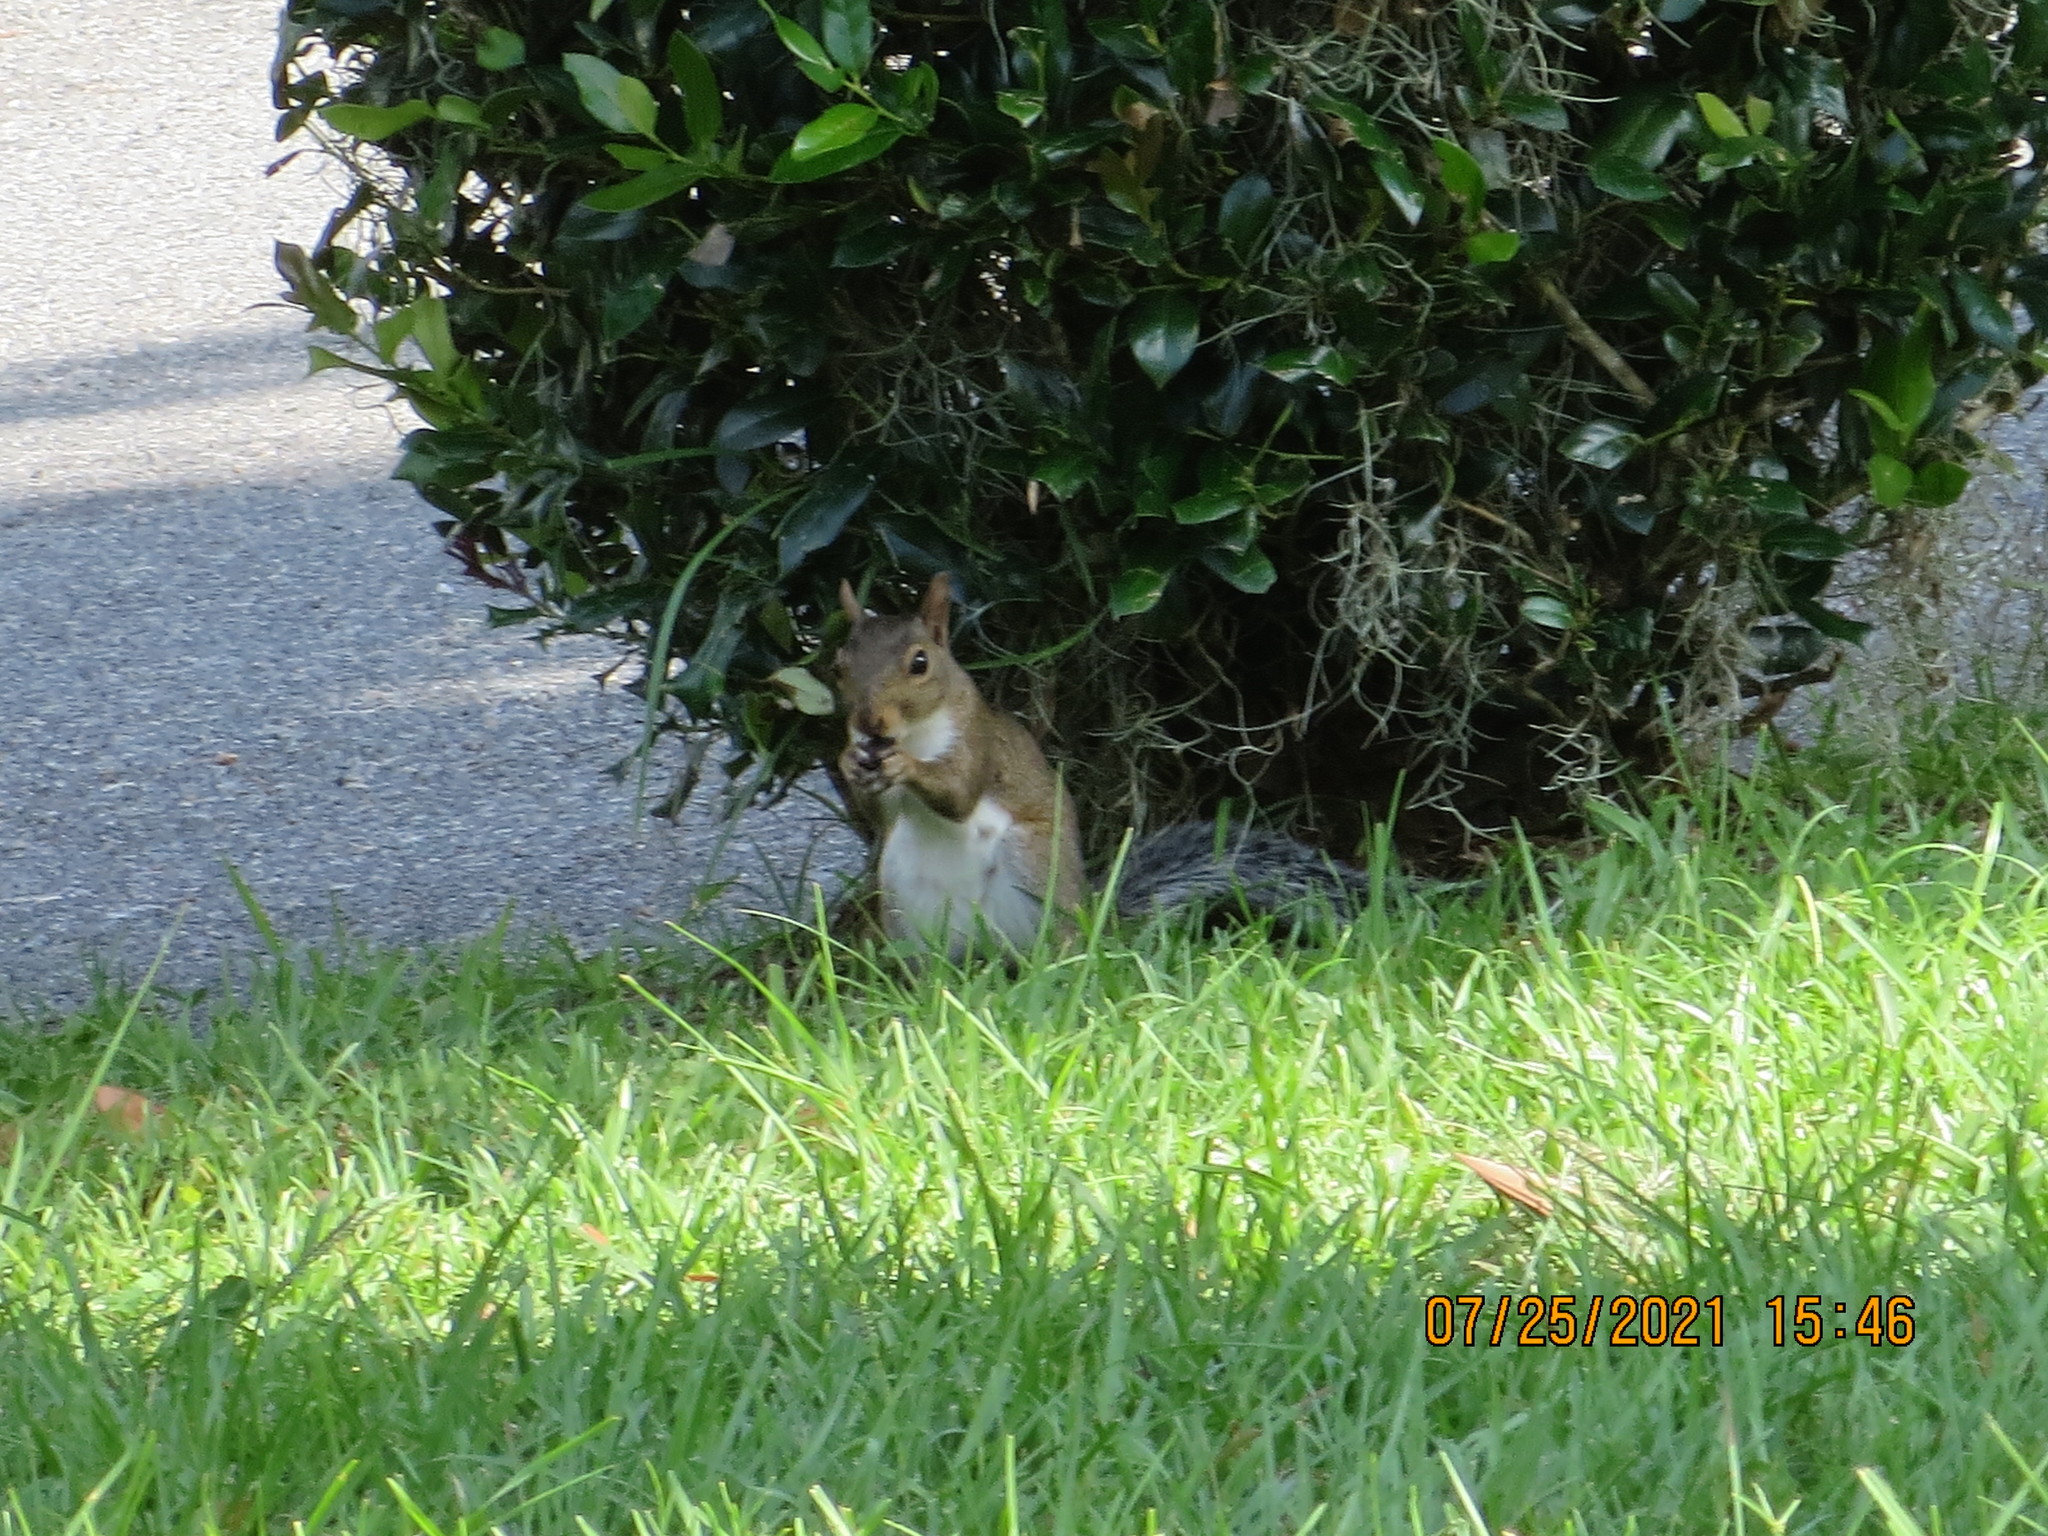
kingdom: Animalia
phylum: Chordata
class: Mammalia
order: Rodentia
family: Sciuridae
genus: Sciurus
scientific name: Sciurus carolinensis
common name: Eastern gray squirrel
